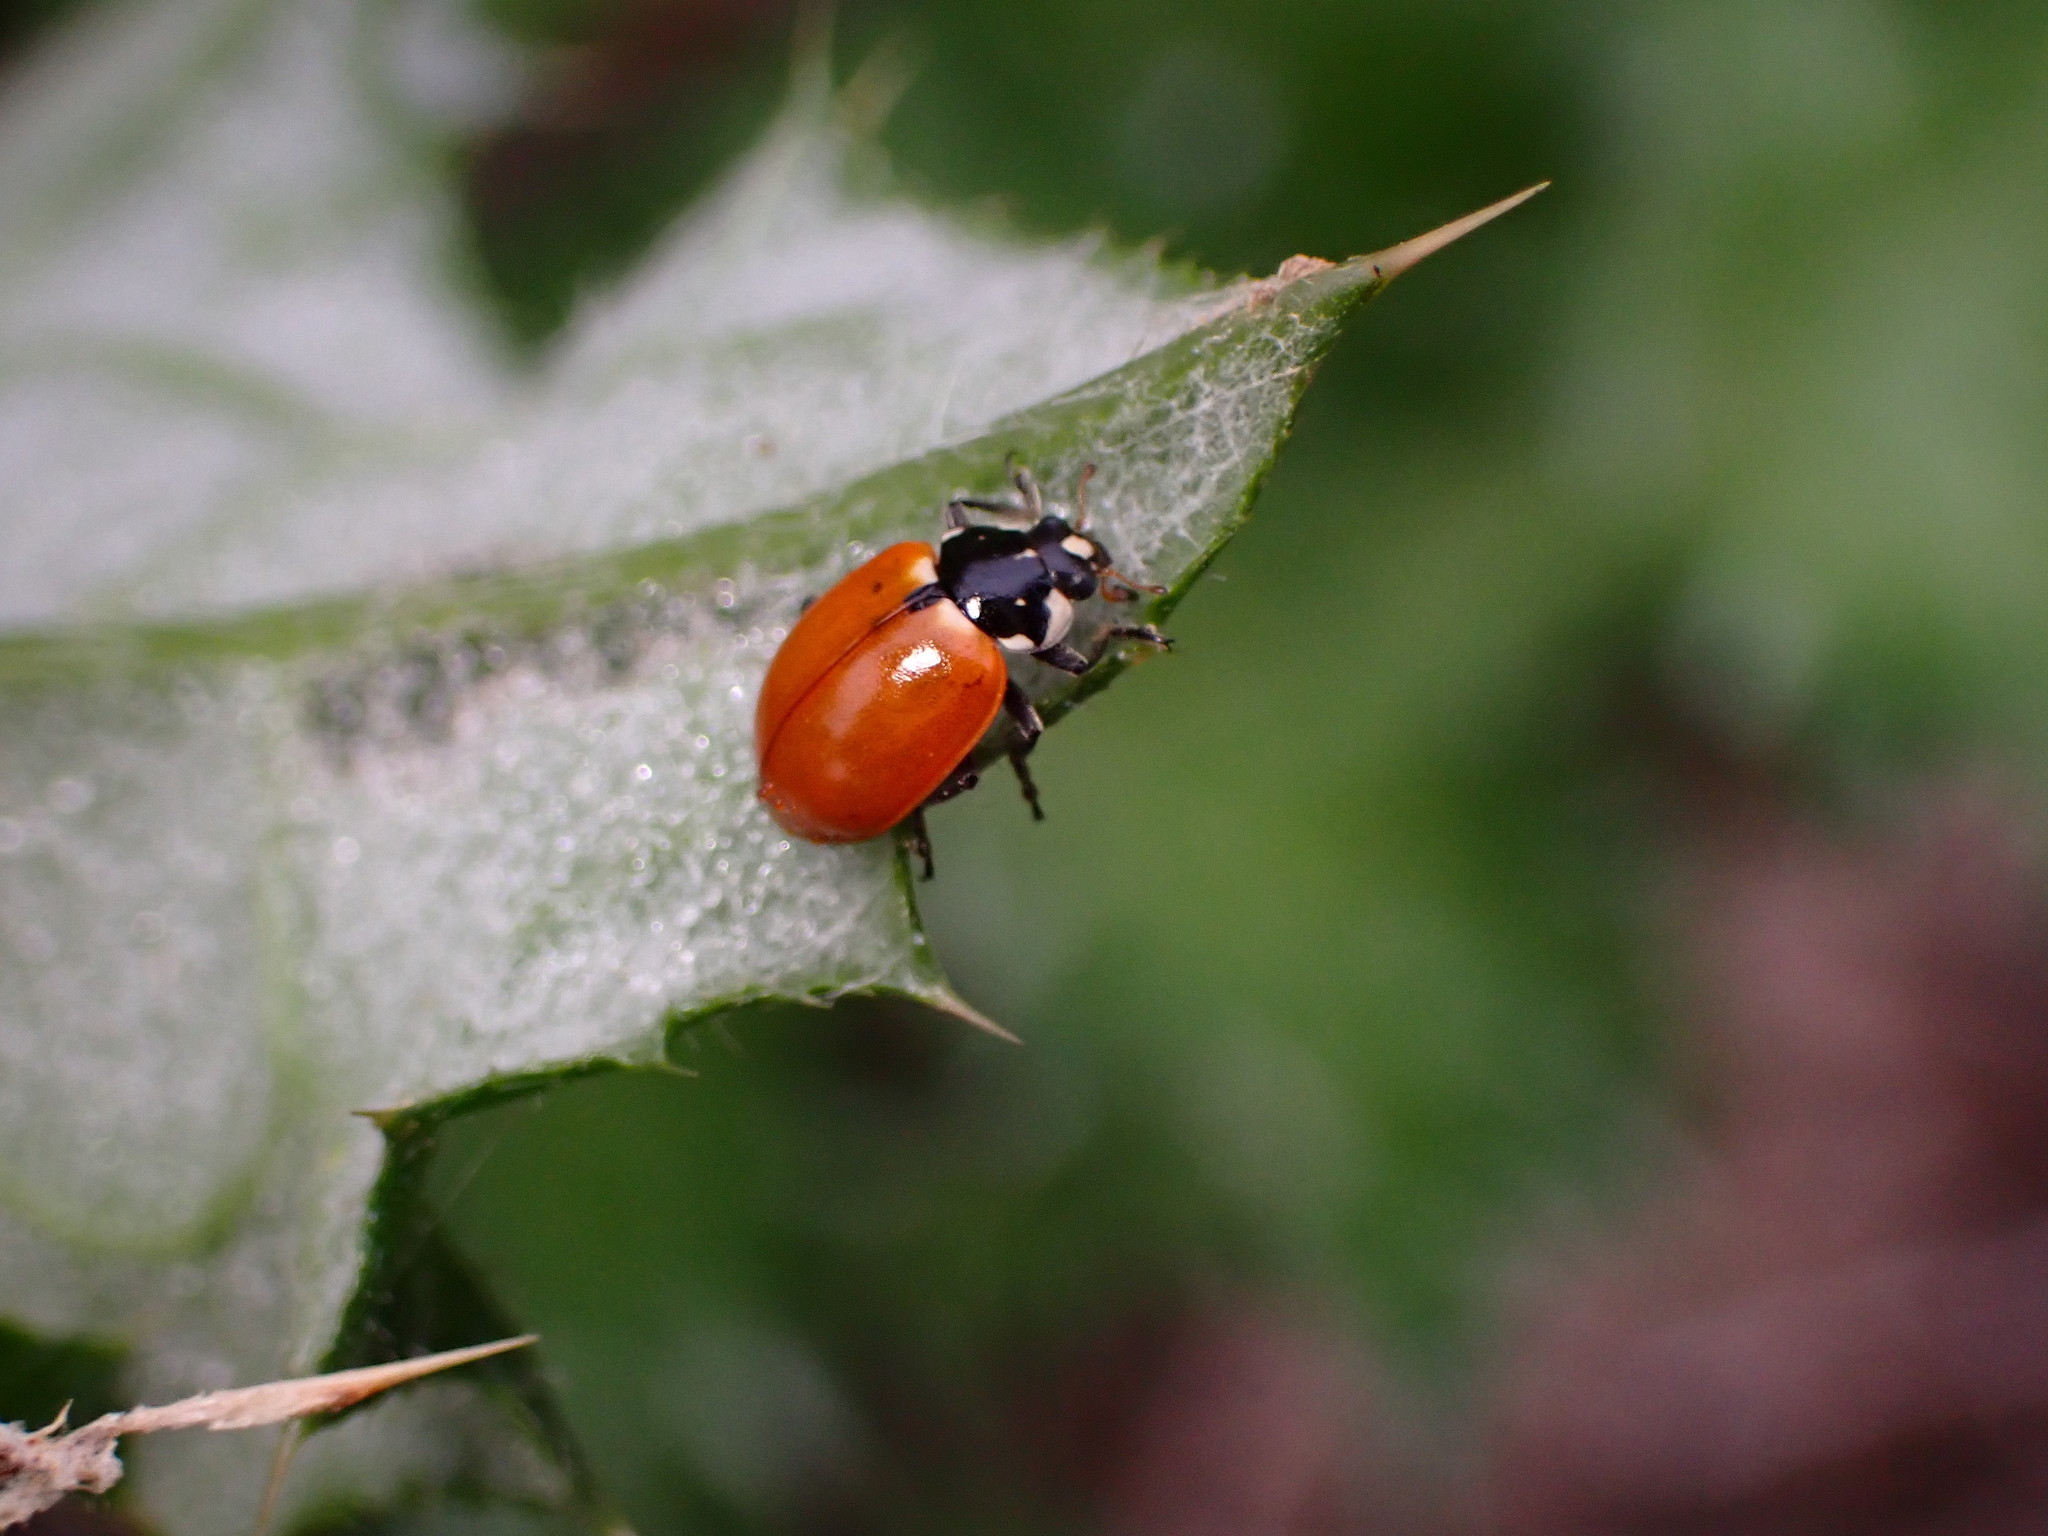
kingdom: Animalia
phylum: Arthropoda
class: Insecta
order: Coleoptera
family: Coccinellidae
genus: Hippodamia
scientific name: Hippodamia quinquesignata
